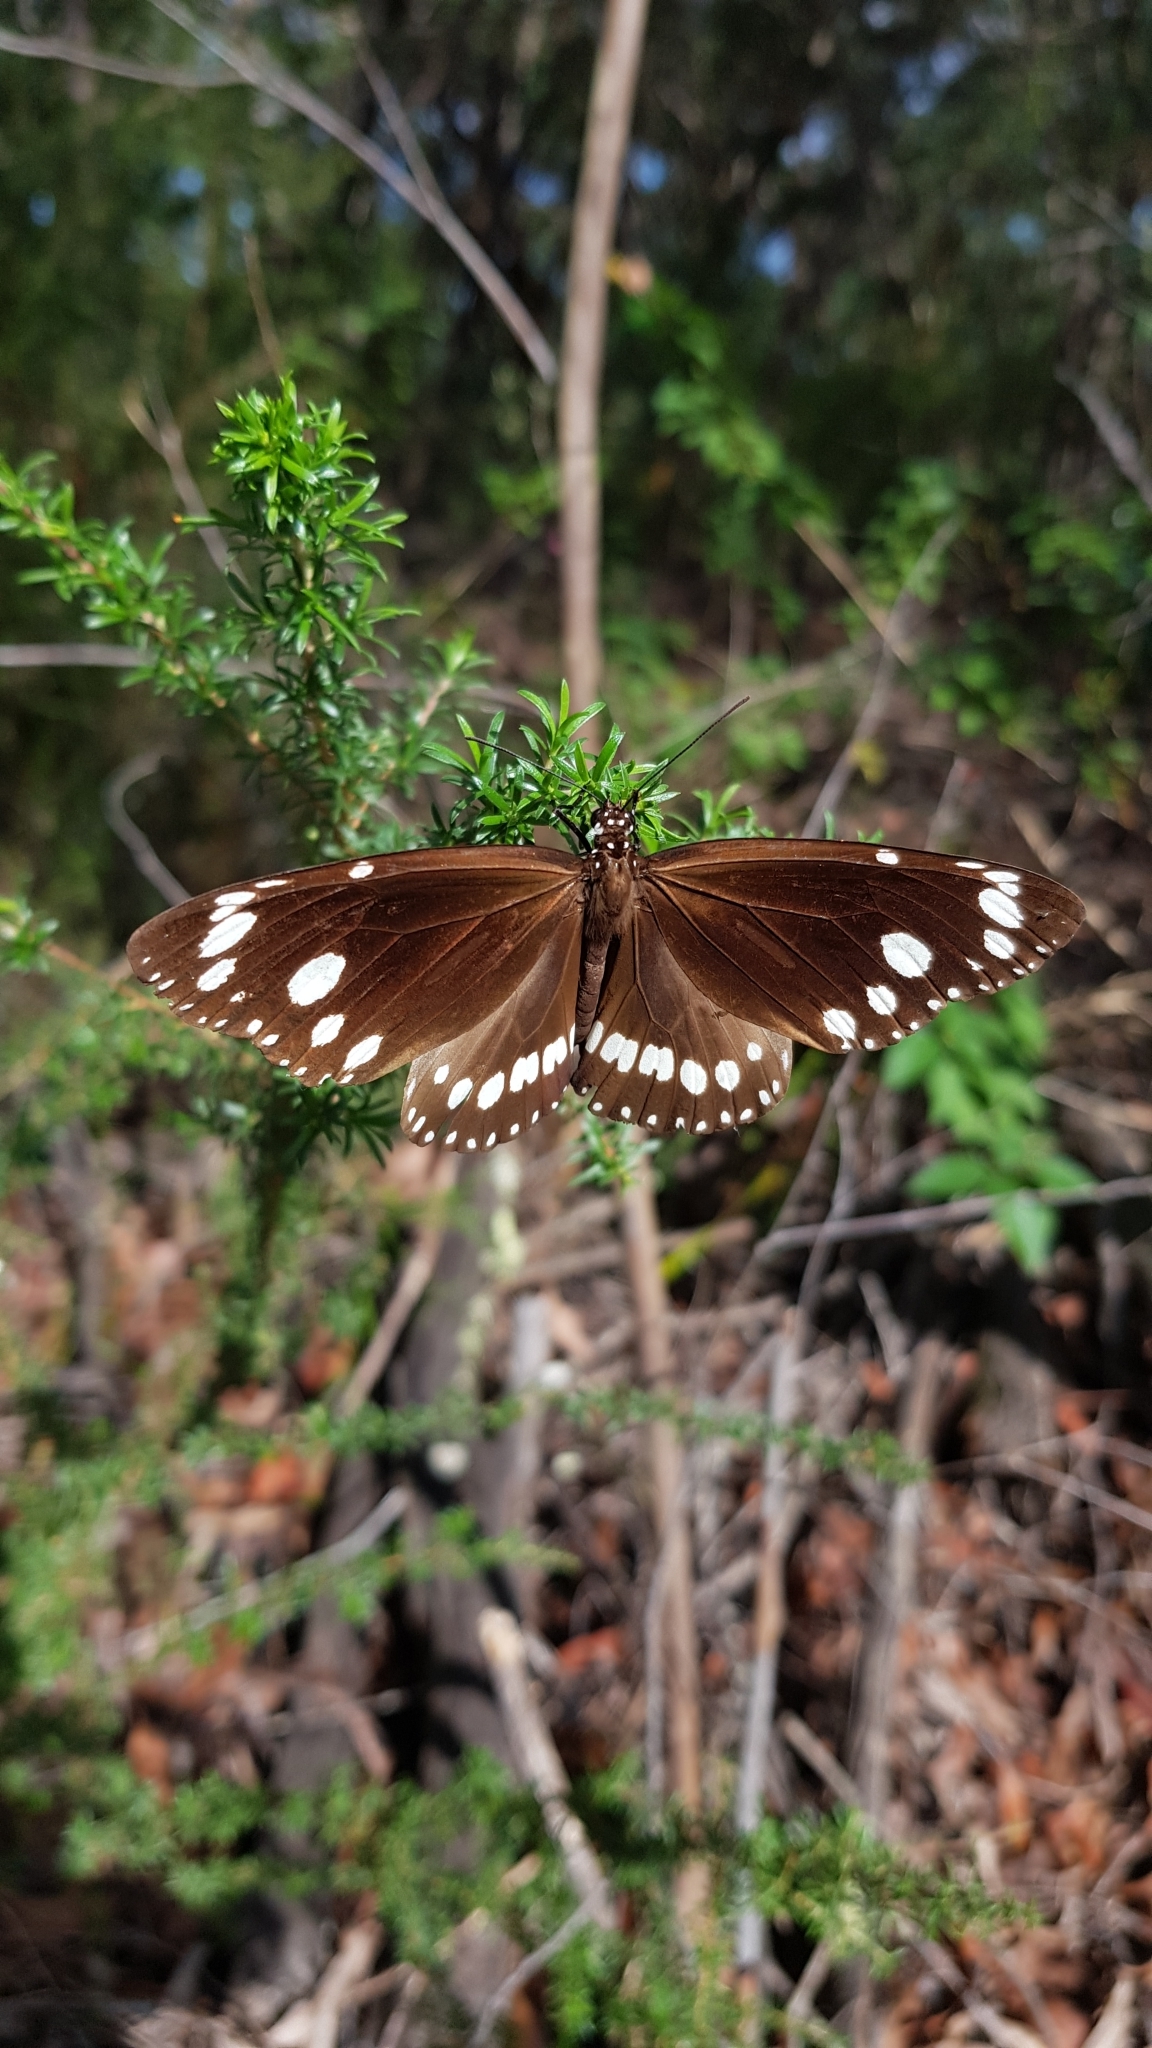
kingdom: Animalia
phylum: Arthropoda
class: Insecta
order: Lepidoptera
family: Nymphalidae
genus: Euploea
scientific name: Euploea core
